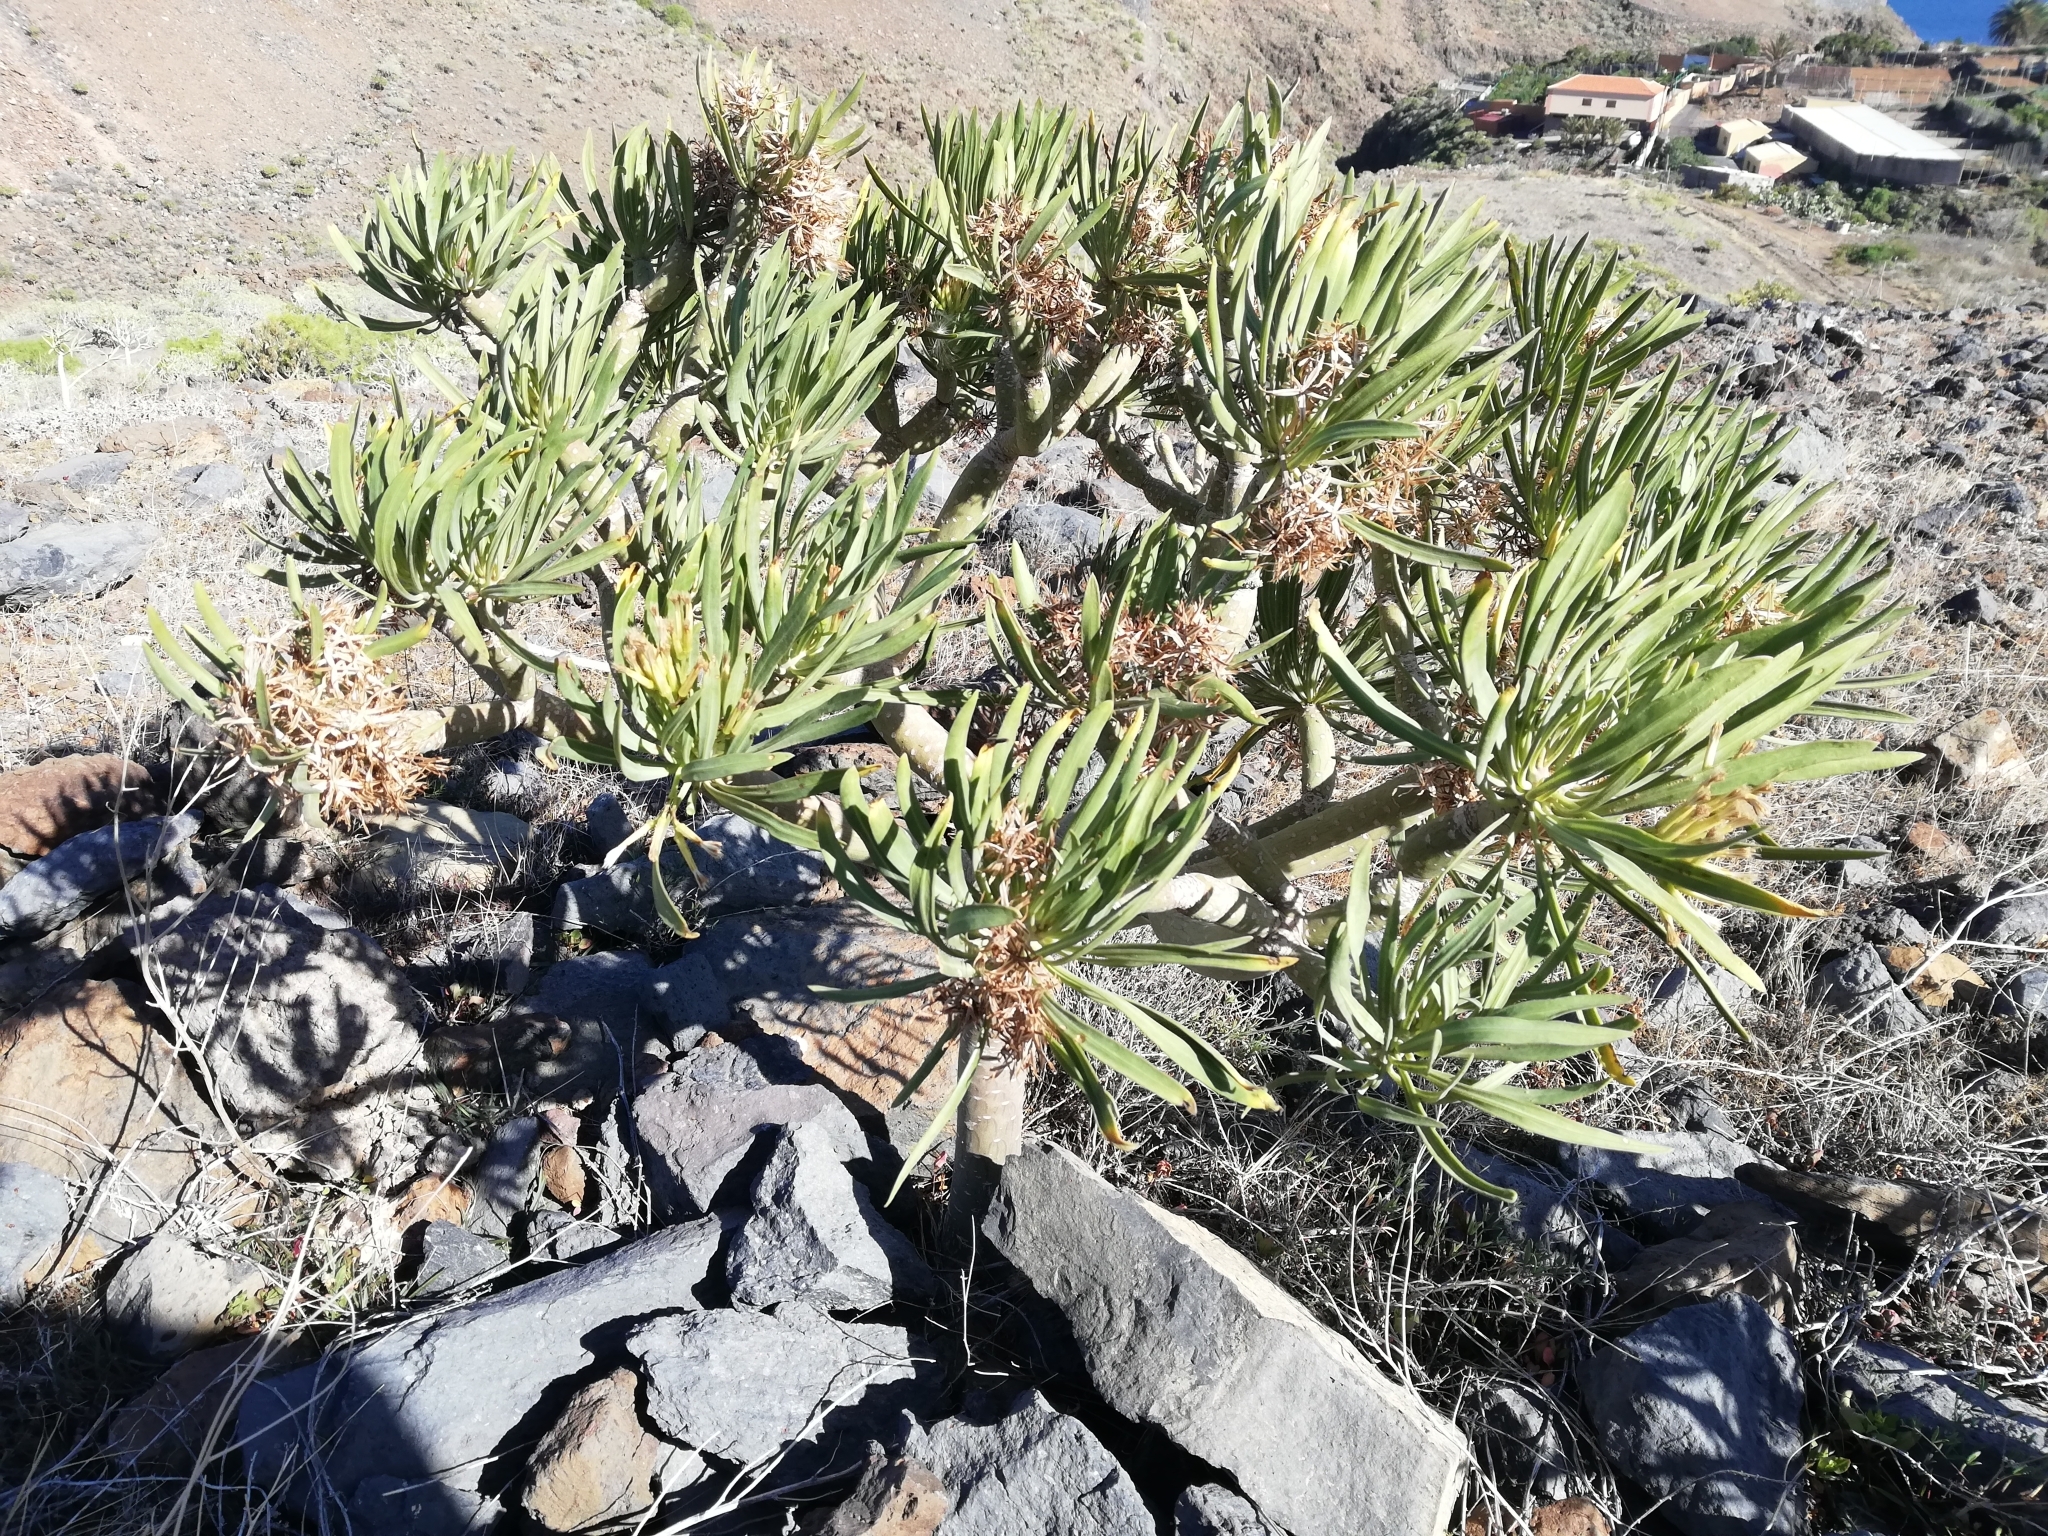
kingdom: Plantae
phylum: Tracheophyta
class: Magnoliopsida
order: Asterales
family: Asteraceae
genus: Kleinia
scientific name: Kleinia neriifolia
